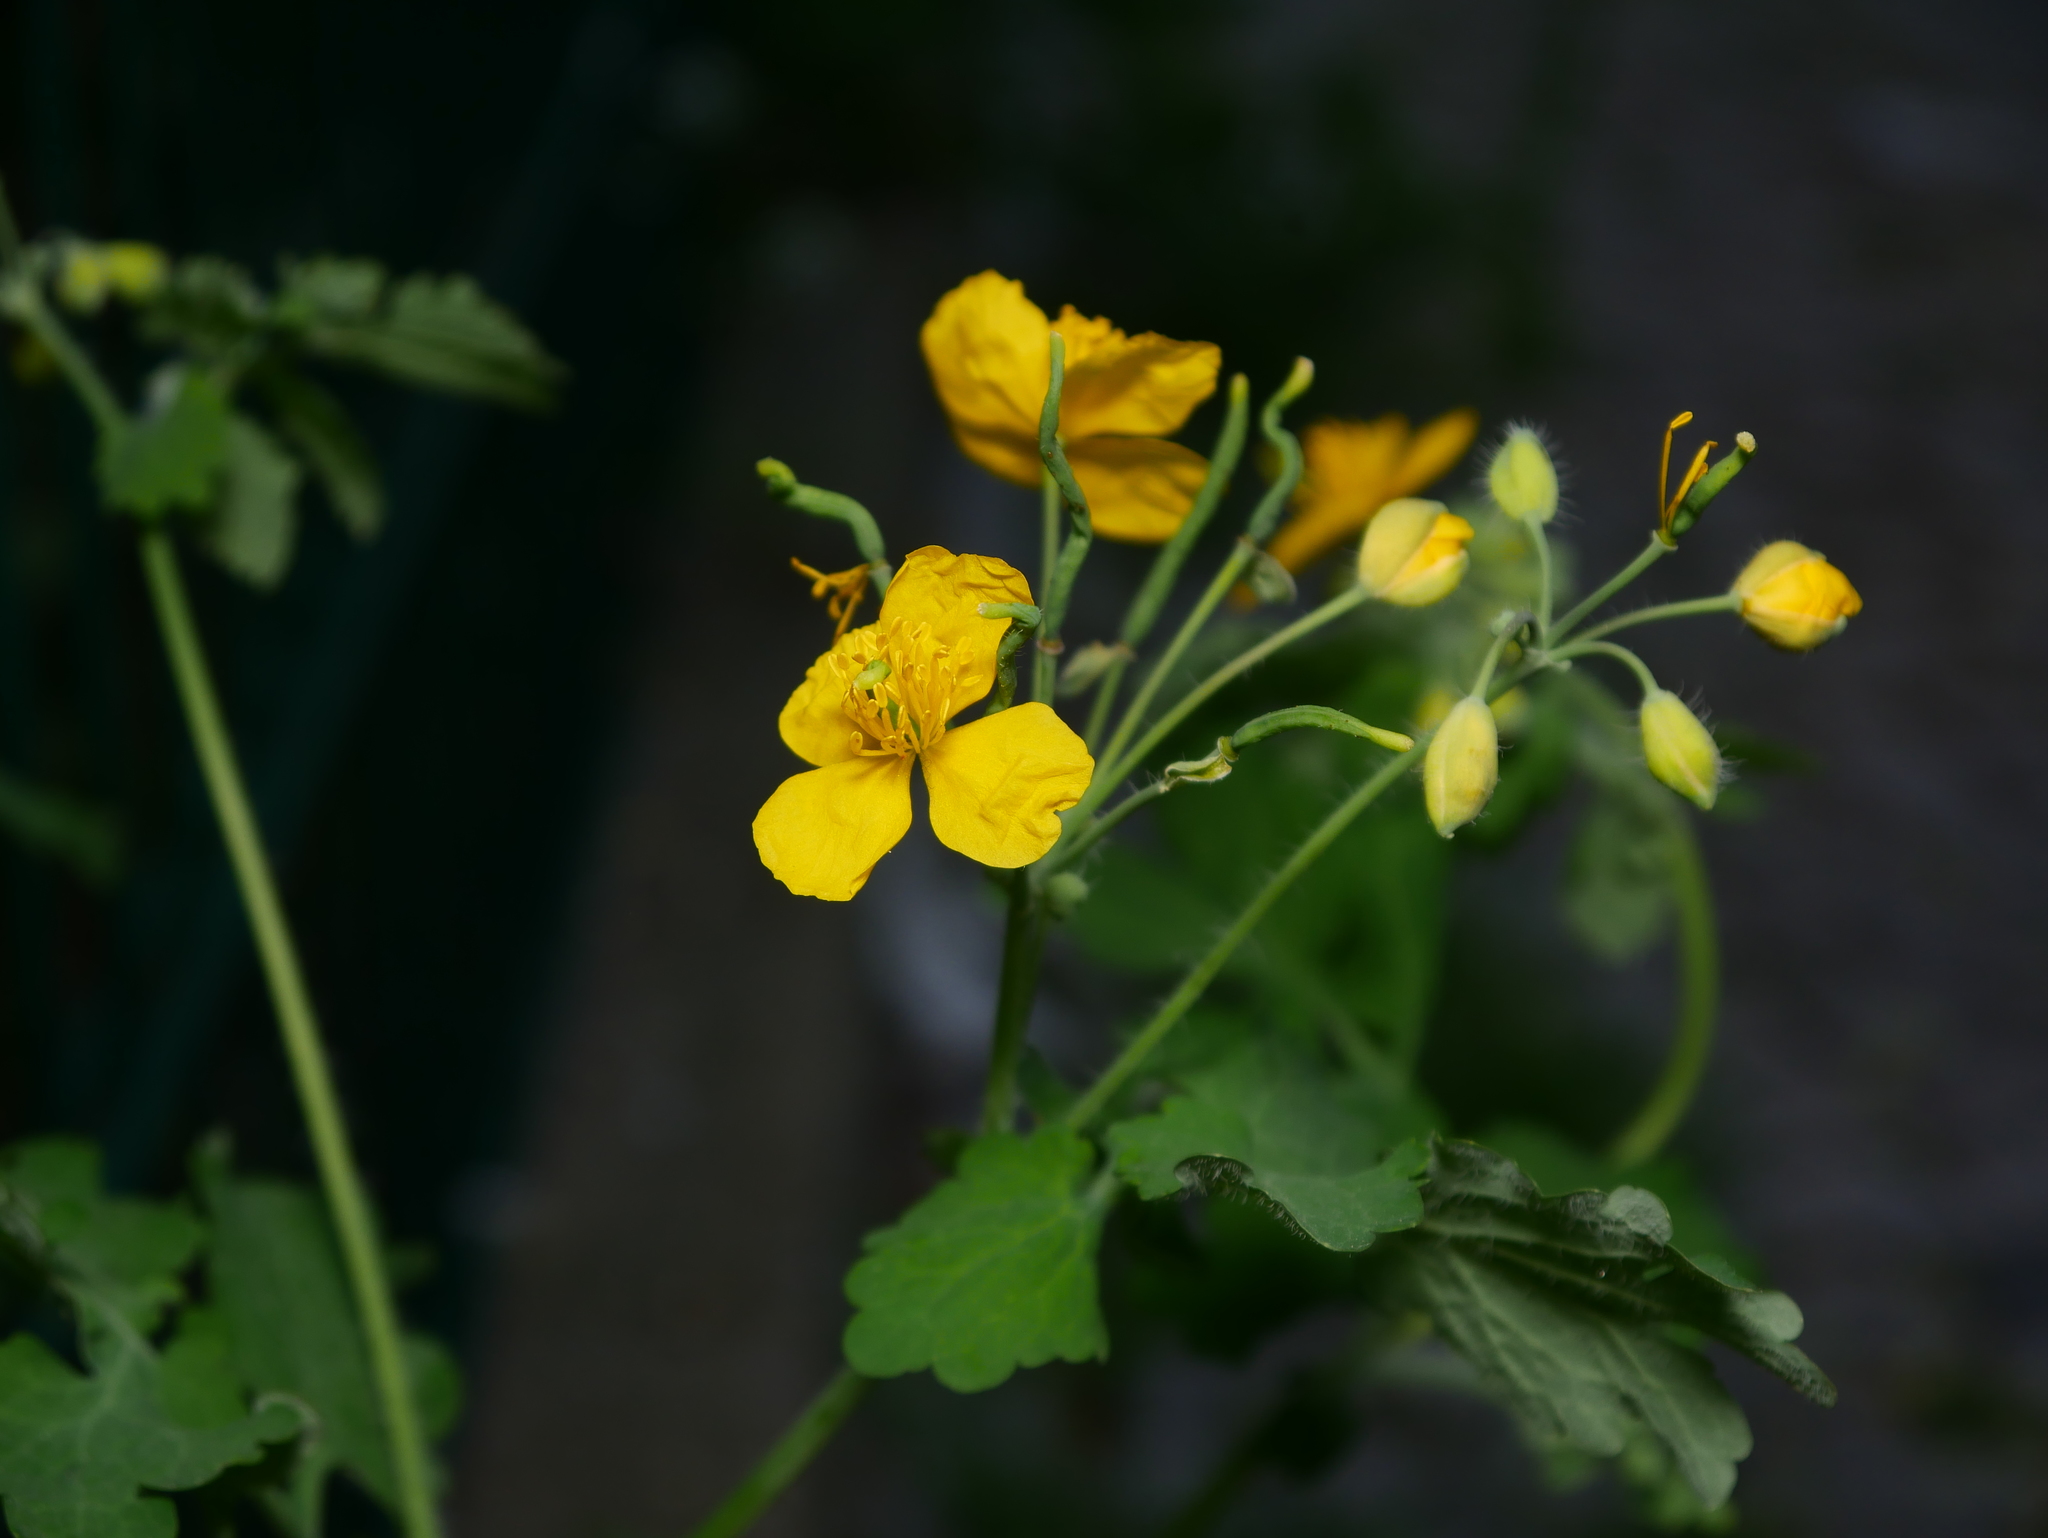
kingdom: Plantae
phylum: Tracheophyta
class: Magnoliopsida
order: Ranunculales
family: Papaveraceae
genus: Chelidonium
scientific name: Chelidonium majus
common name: Greater celandine
